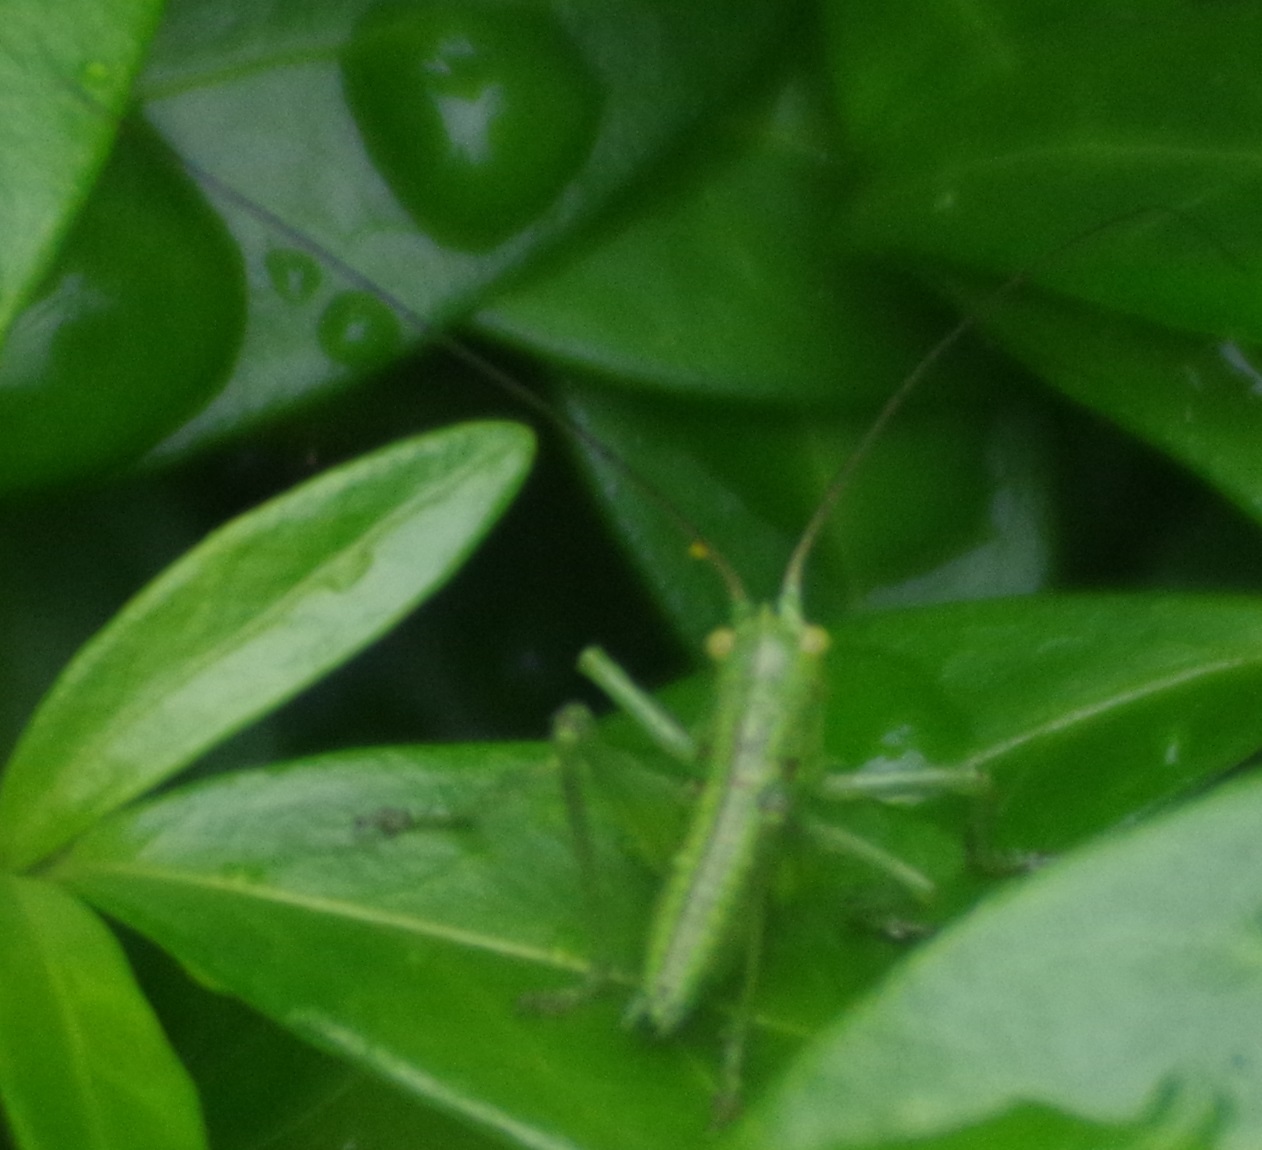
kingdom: Animalia
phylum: Arthropoda
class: Insecta
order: Orthoptera
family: Tettigoniidae
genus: Tettigonia
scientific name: Tettigonia viridissima
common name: Great green bush-cricket
